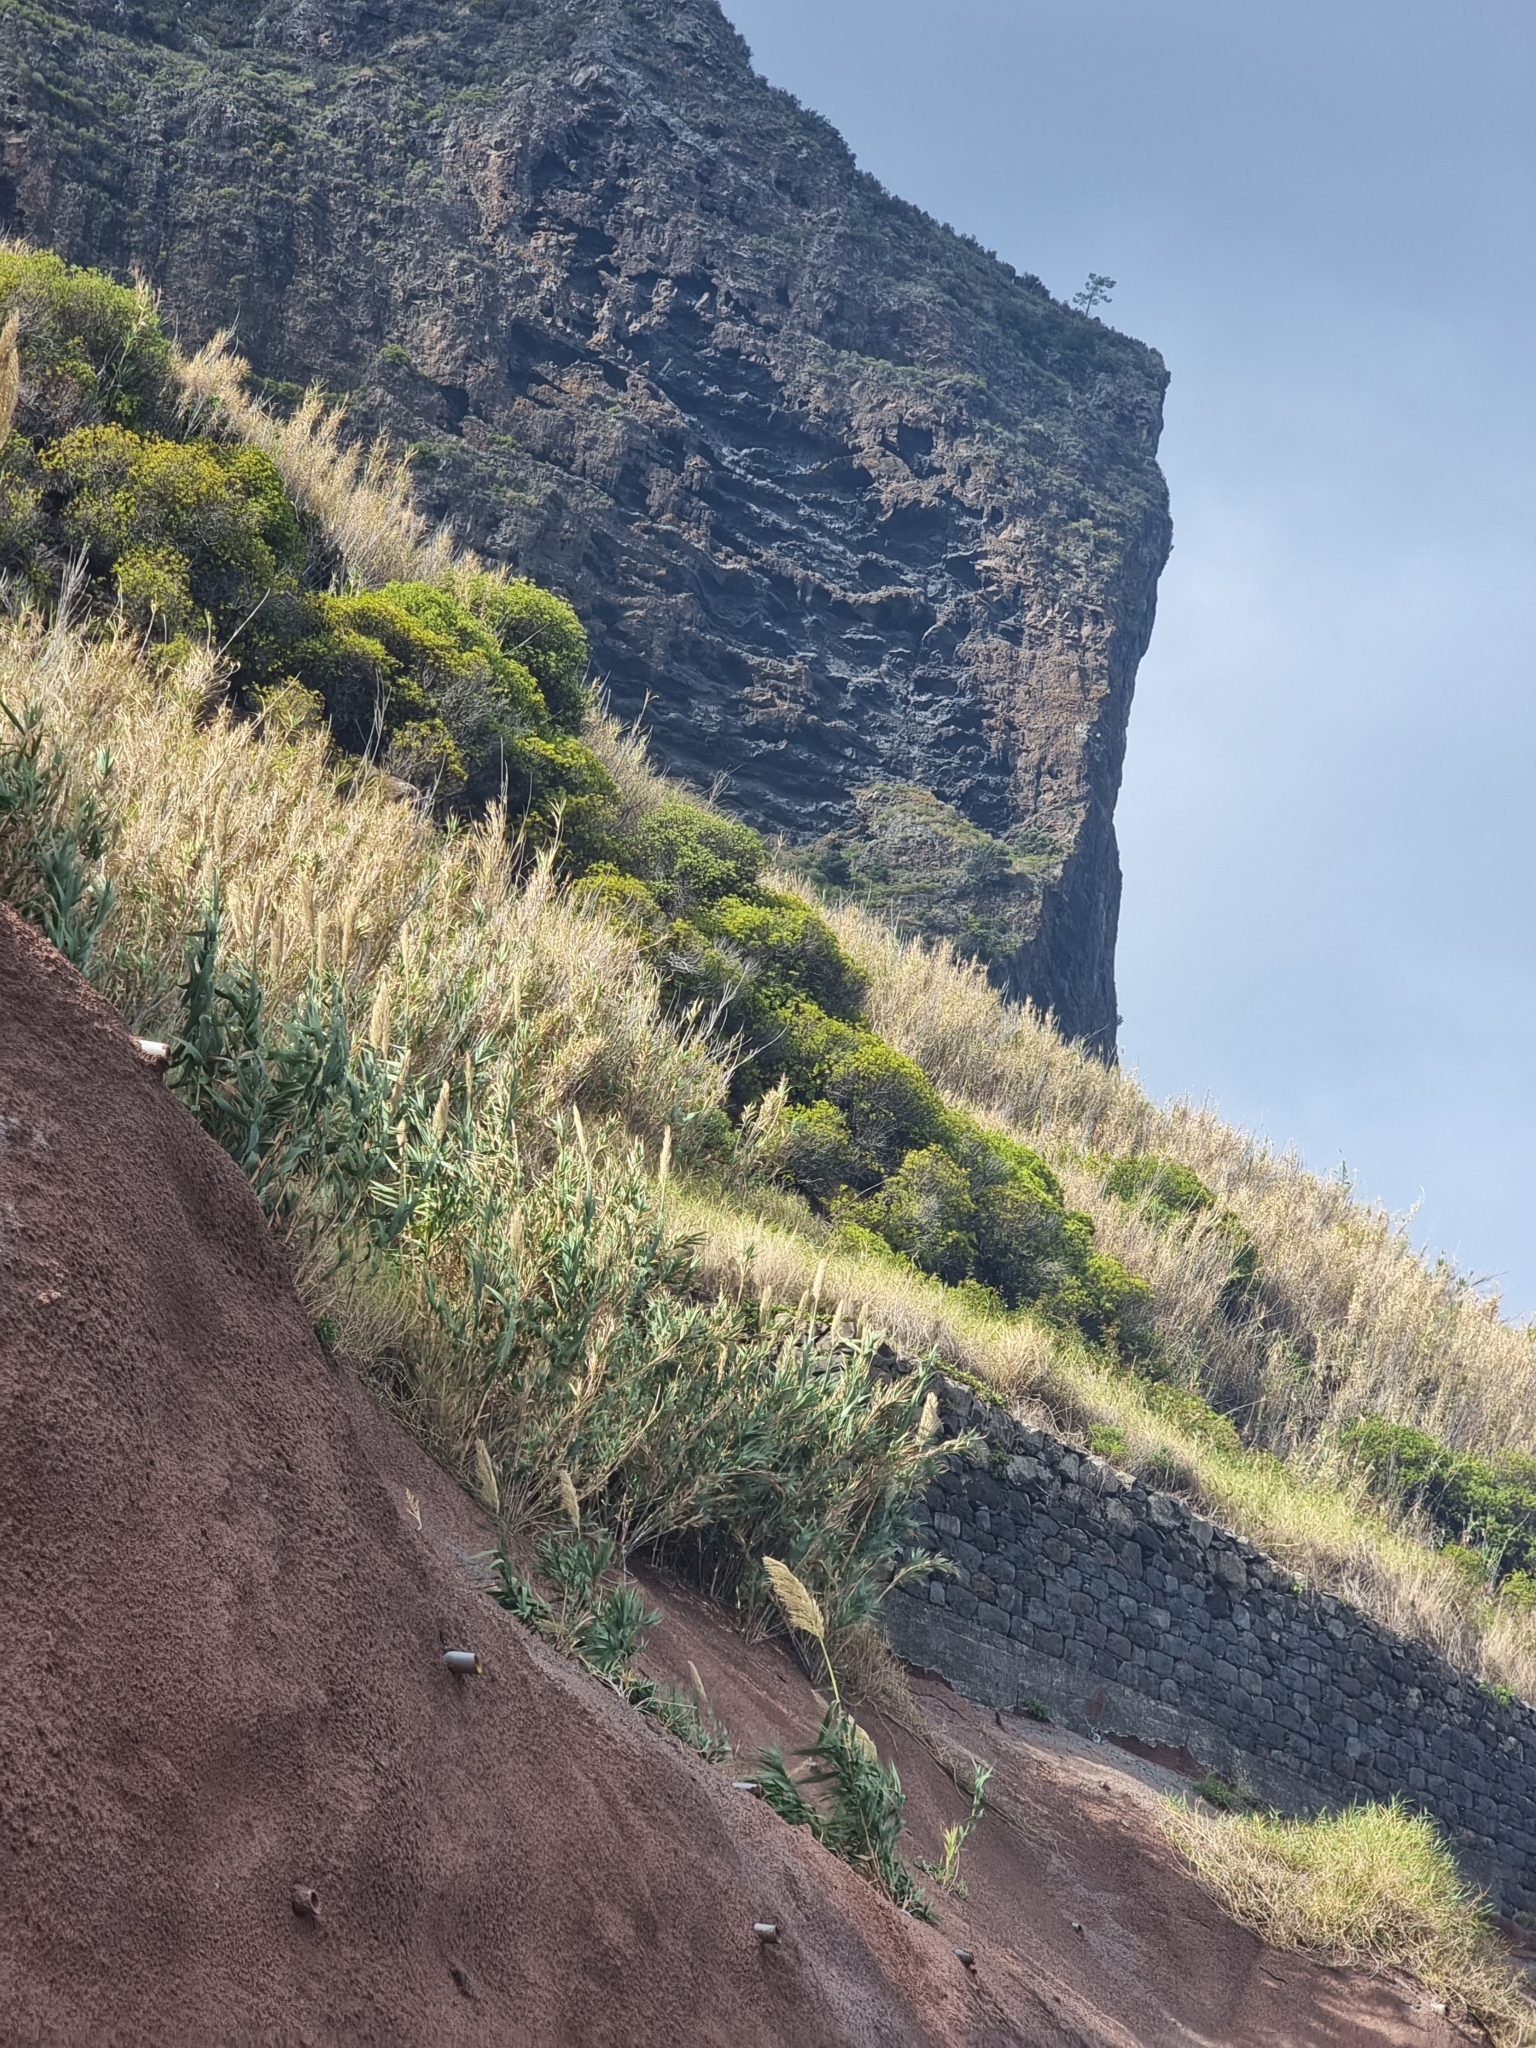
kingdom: Plantae
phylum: Tracheophyta
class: Magnoliopsida
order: Lamiales
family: Plantaginaceae
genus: Globularia
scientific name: Globularia salicina
